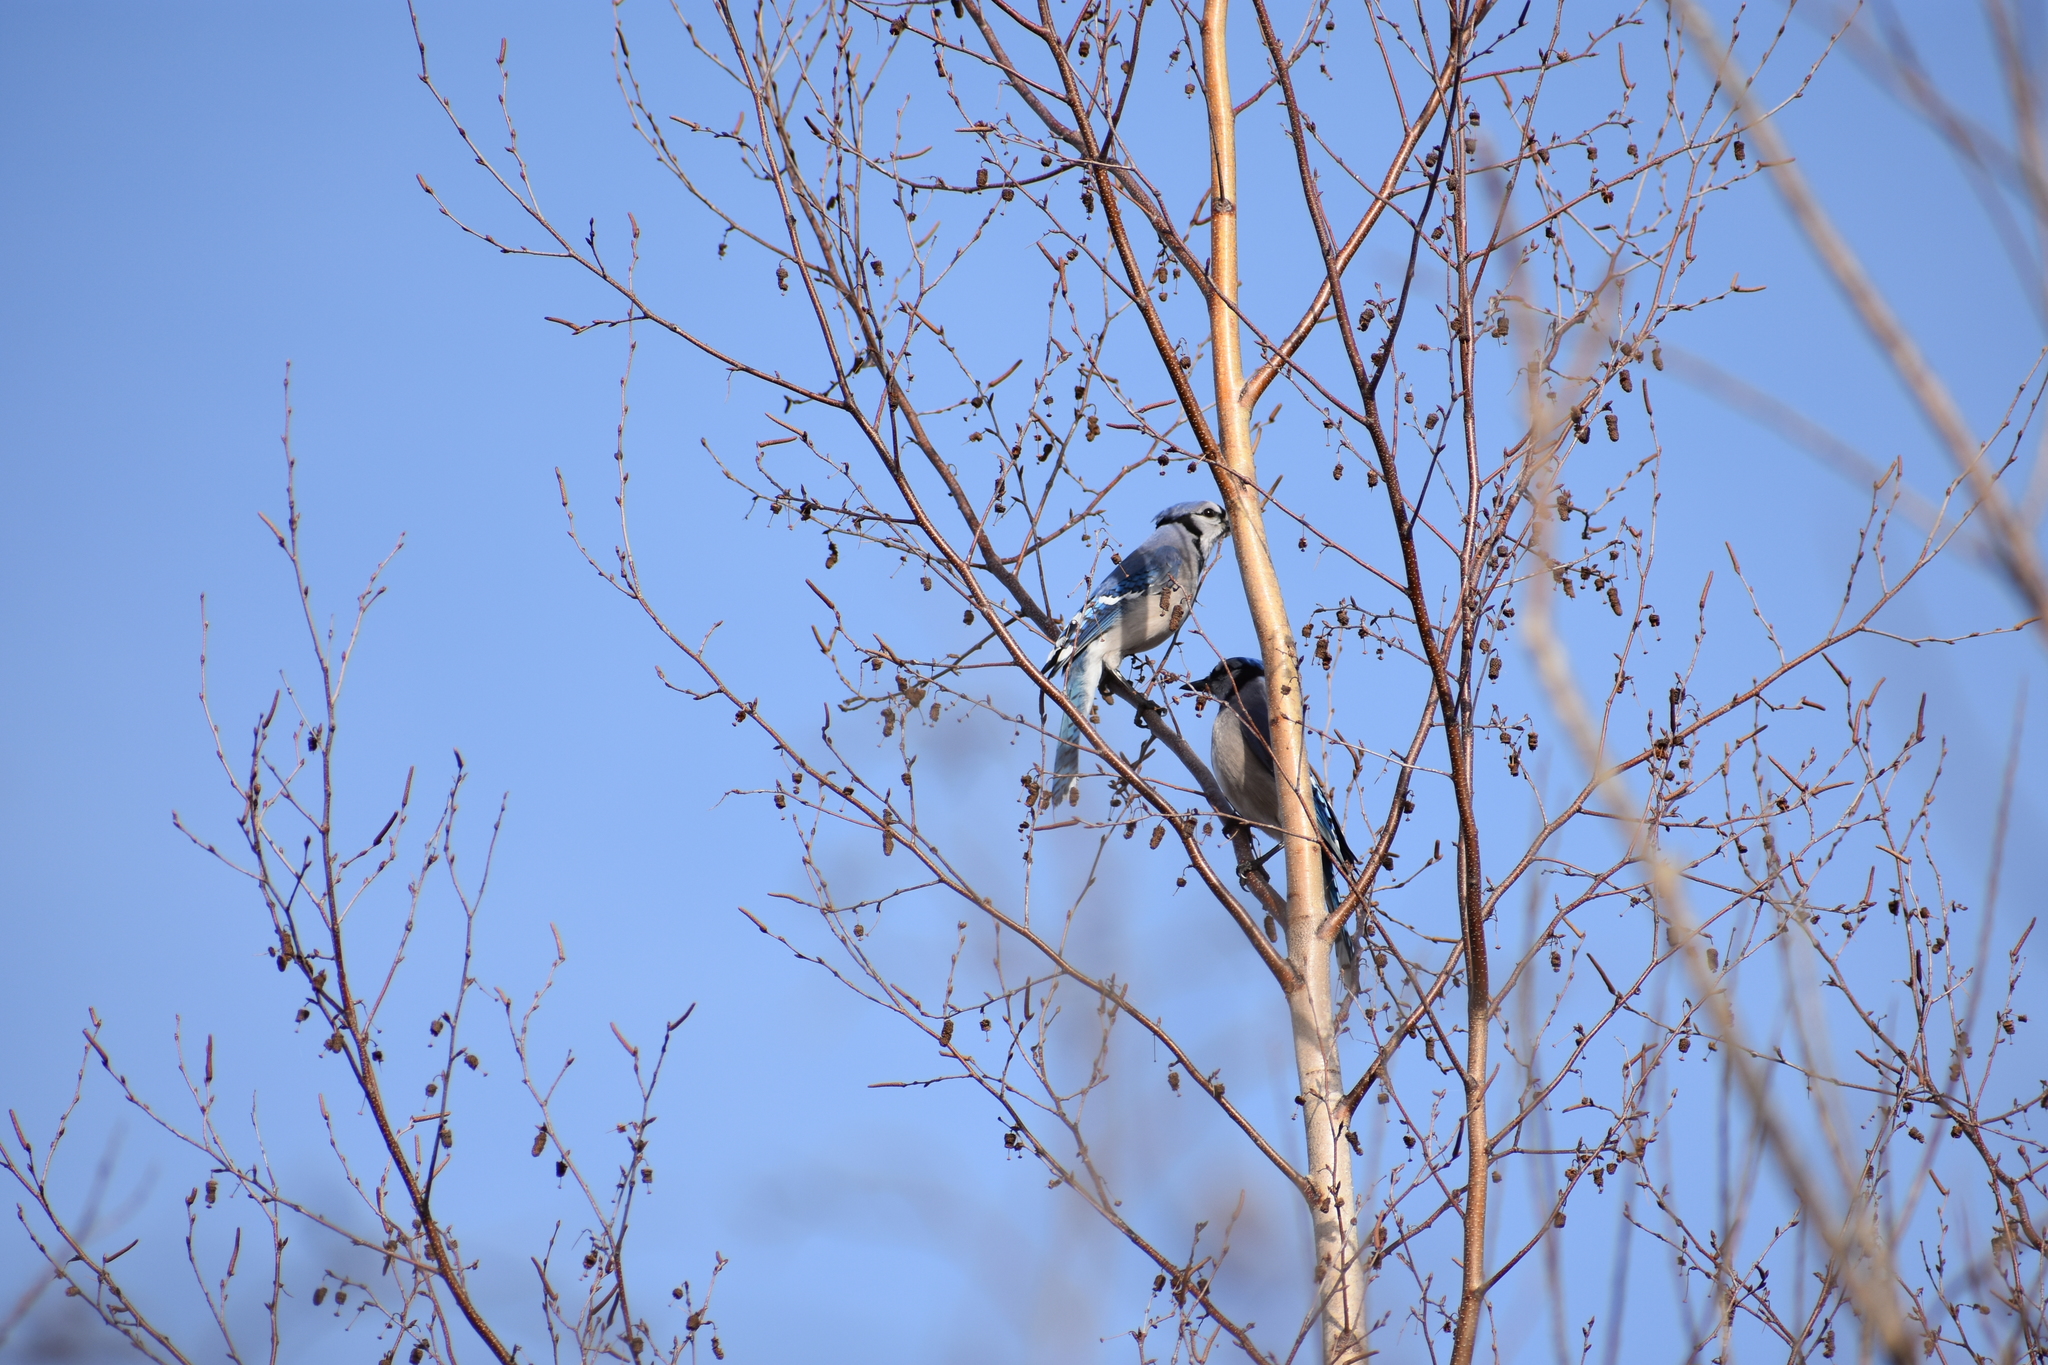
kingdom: Animalia
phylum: Chordata
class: Aves
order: Passeriformes
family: Corvidae
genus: Cyanocitta
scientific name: Cyanocitta cristata
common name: Blue jay
